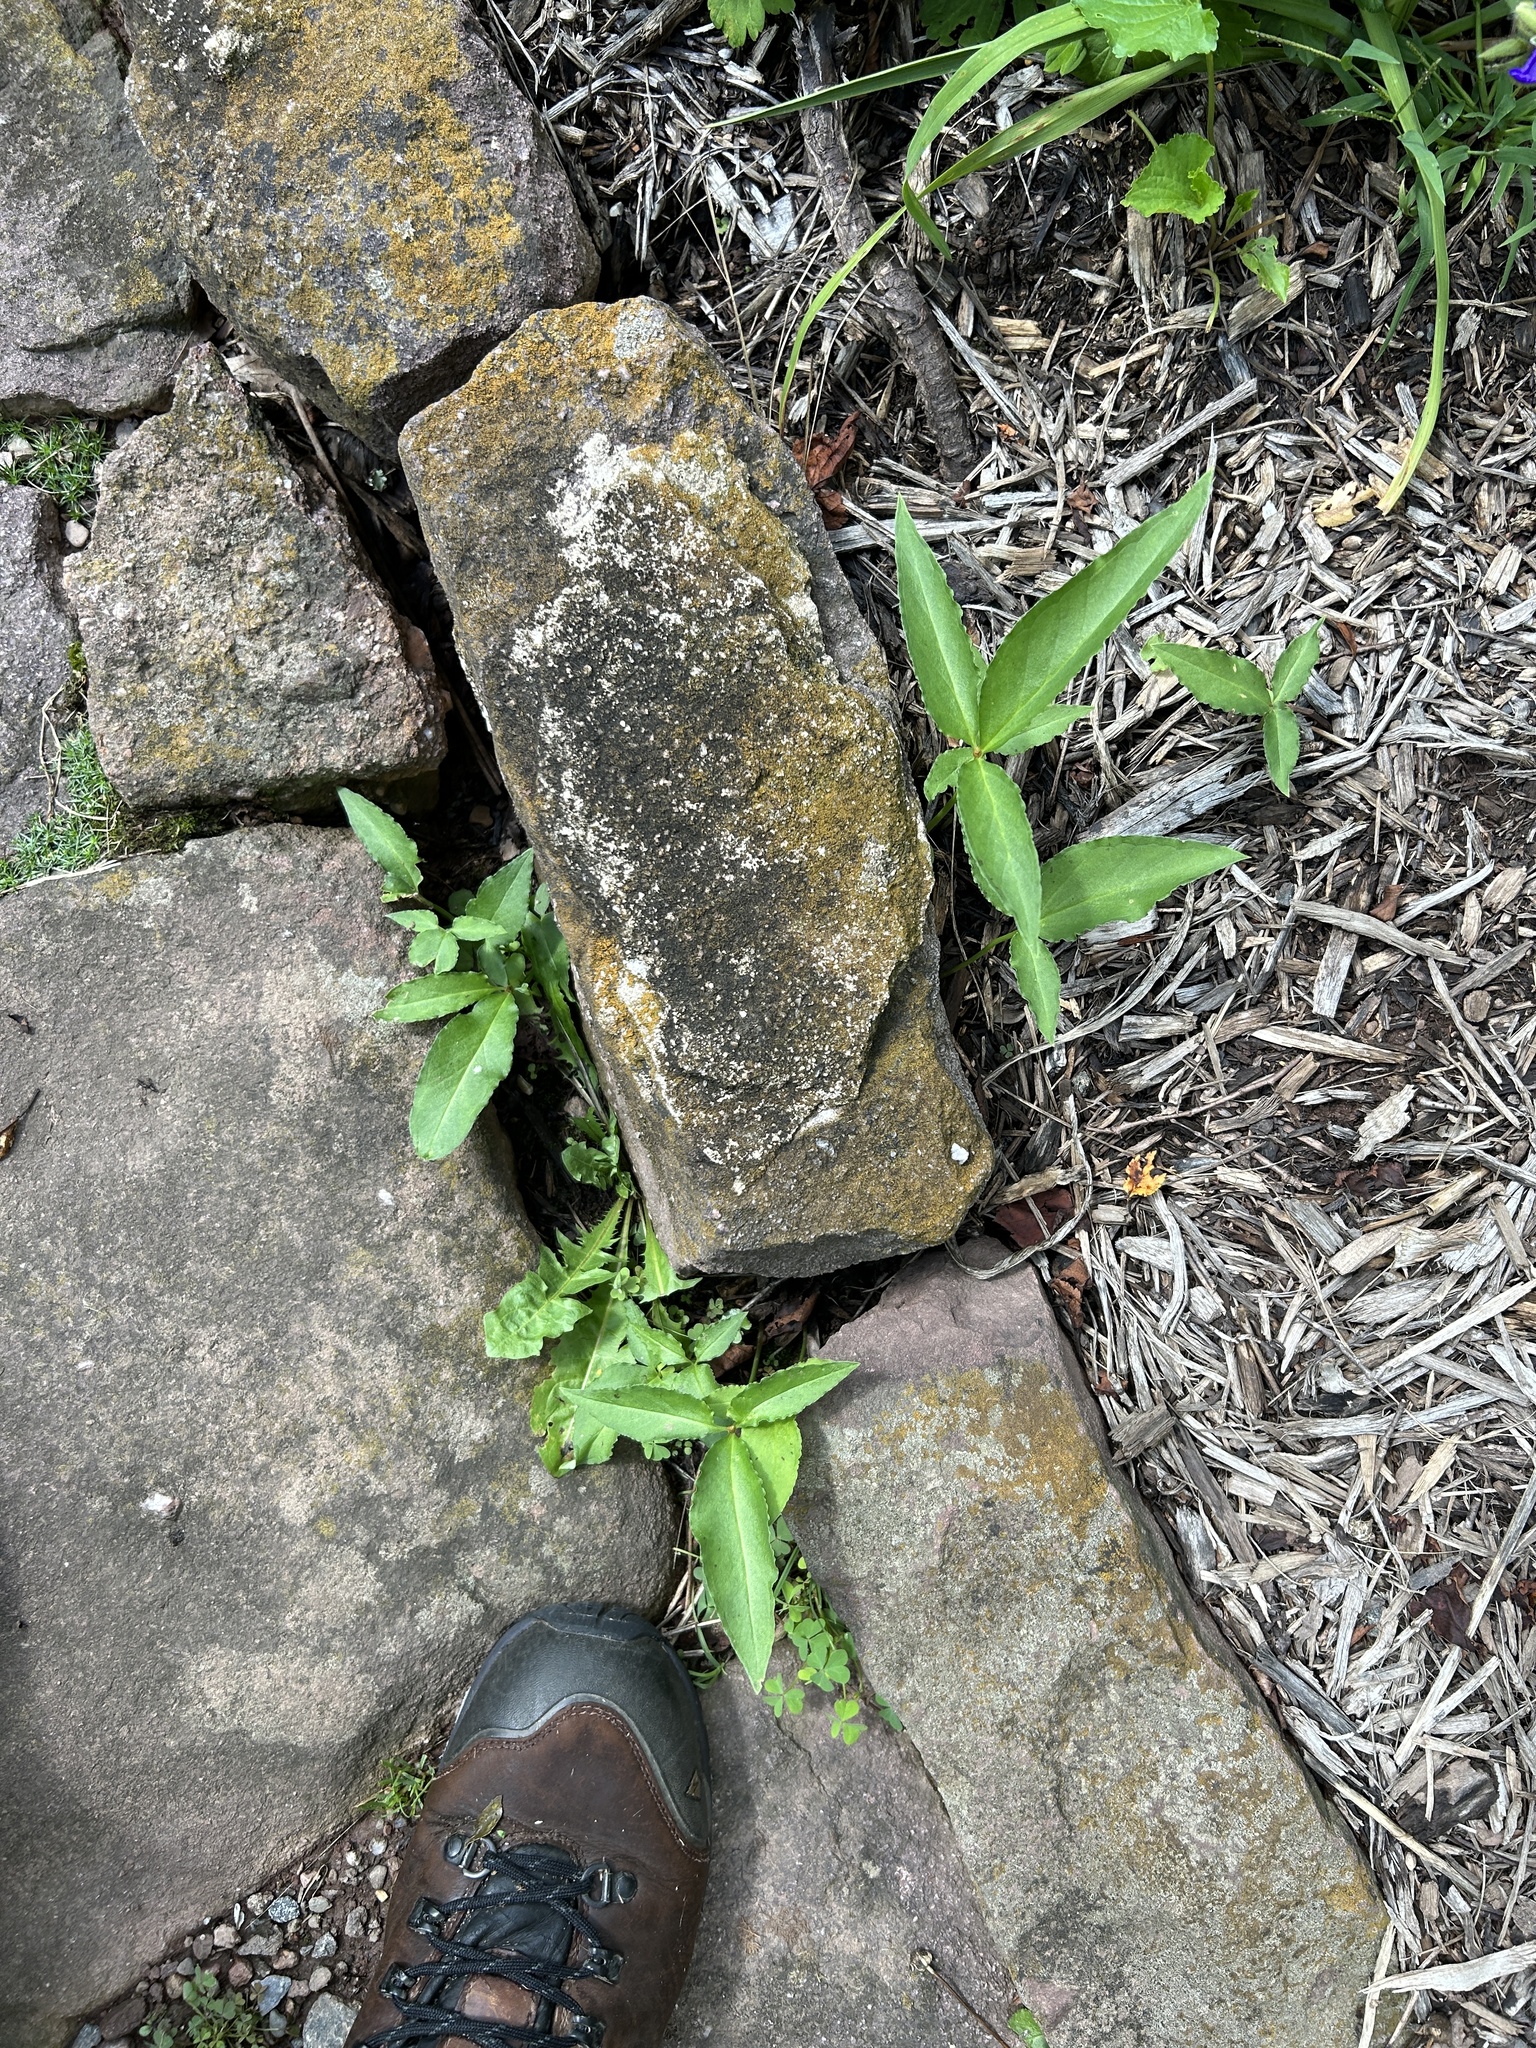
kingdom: Plantae
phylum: Tracheophyta
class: Liliopsida
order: Alismatales
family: Araceae
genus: Pinellia
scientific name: Pinellia ternata
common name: Pinellia
